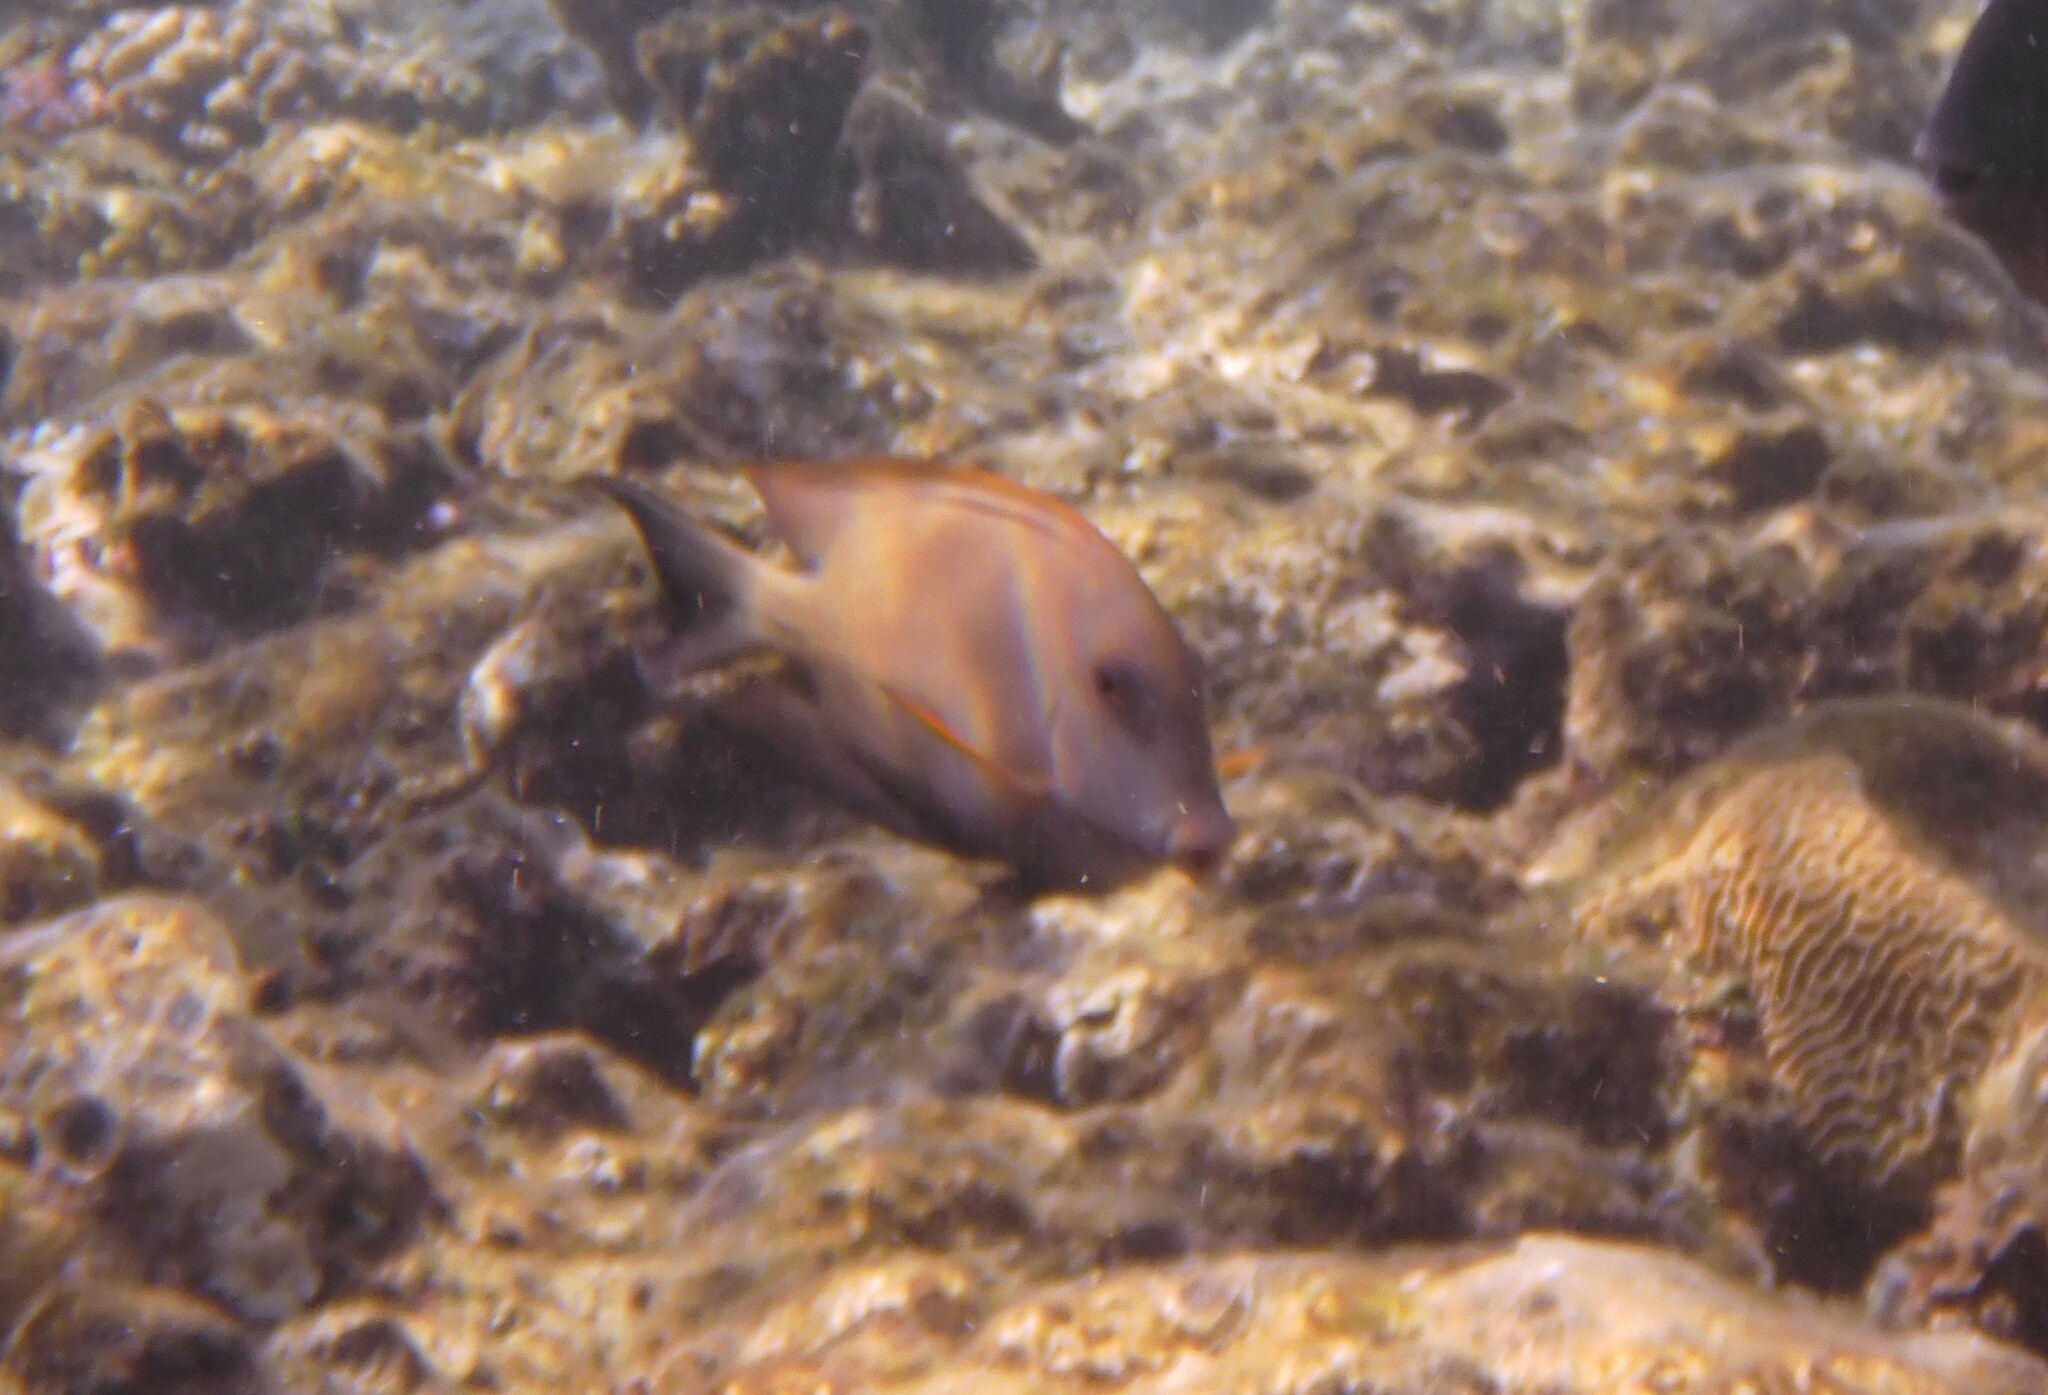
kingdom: Animalia
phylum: Chordata
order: Perciformes
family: Acanthuridae
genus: Ctenochaetus
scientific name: Ctenochaetus striatus
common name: Bristle-toothed surgeonfish
